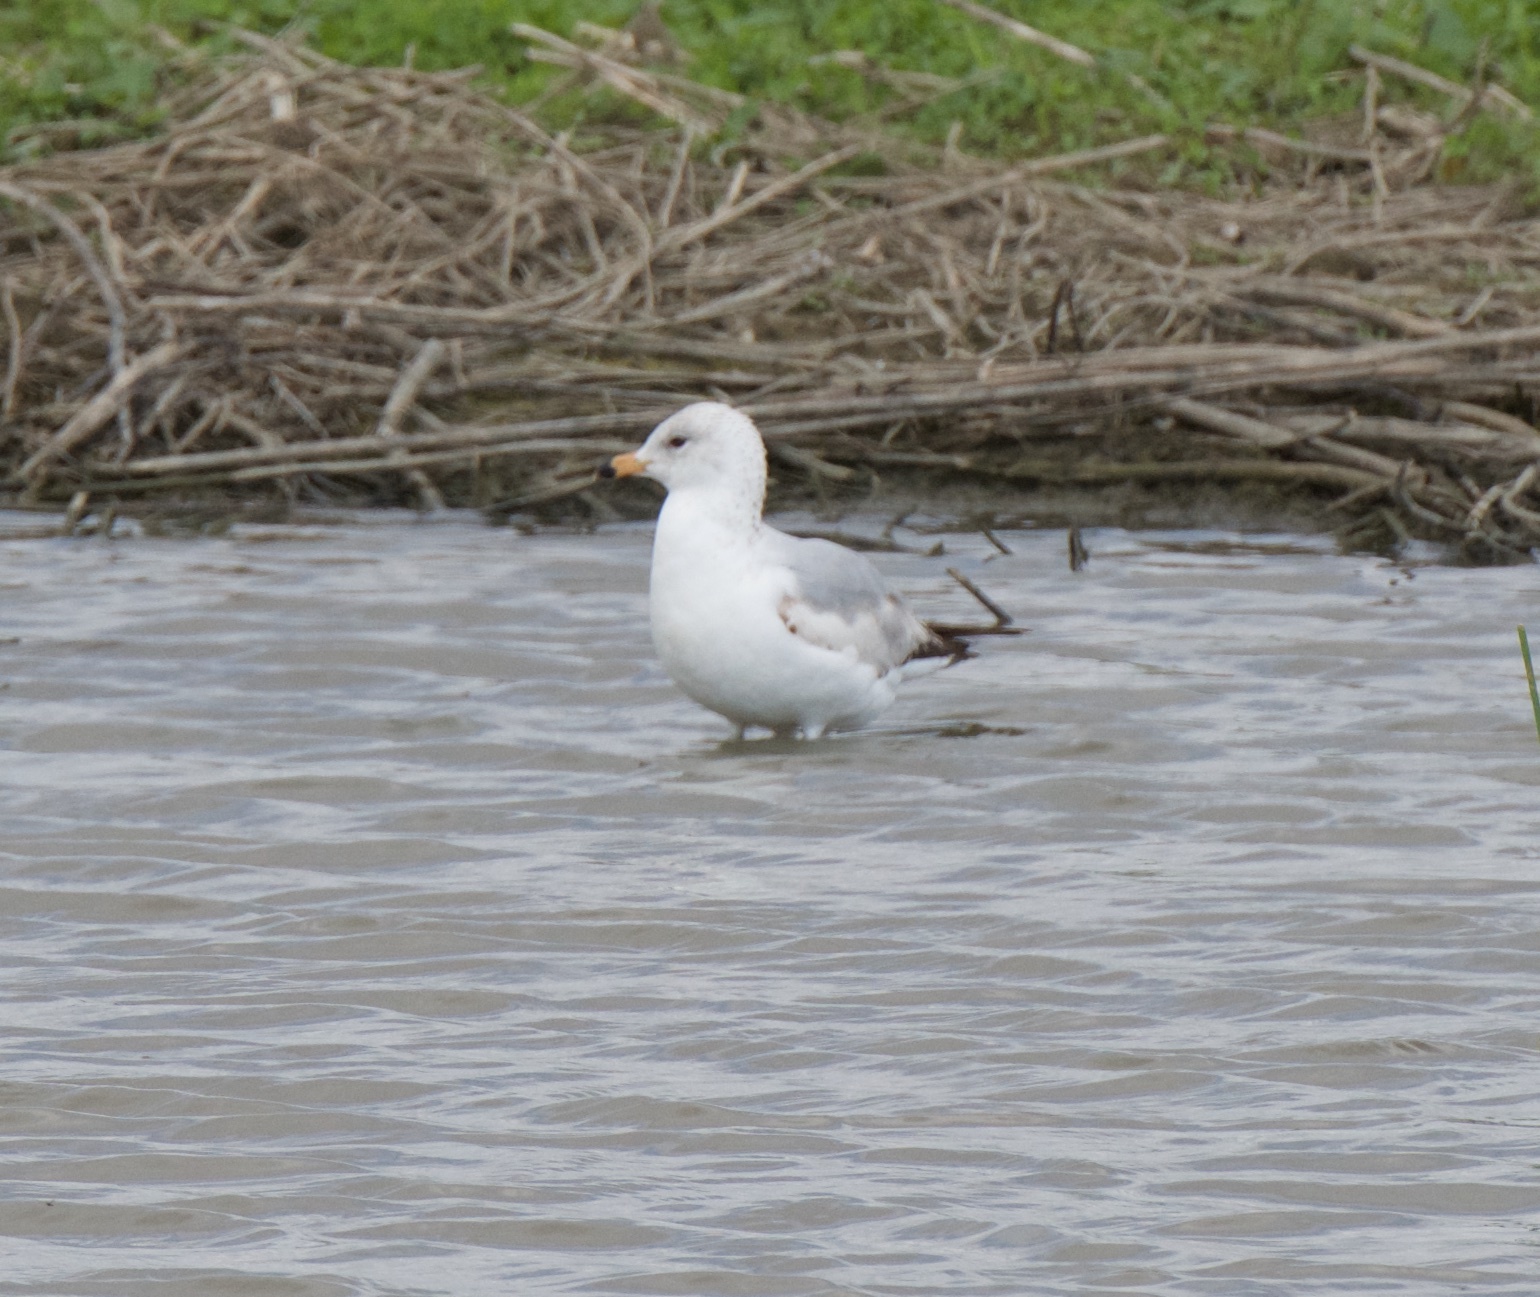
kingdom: Animalia
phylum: Chordata
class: Aves
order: Charadriiformes
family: Laridae
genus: Larus
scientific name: Larus delawarensis
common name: Ring-billed gull
